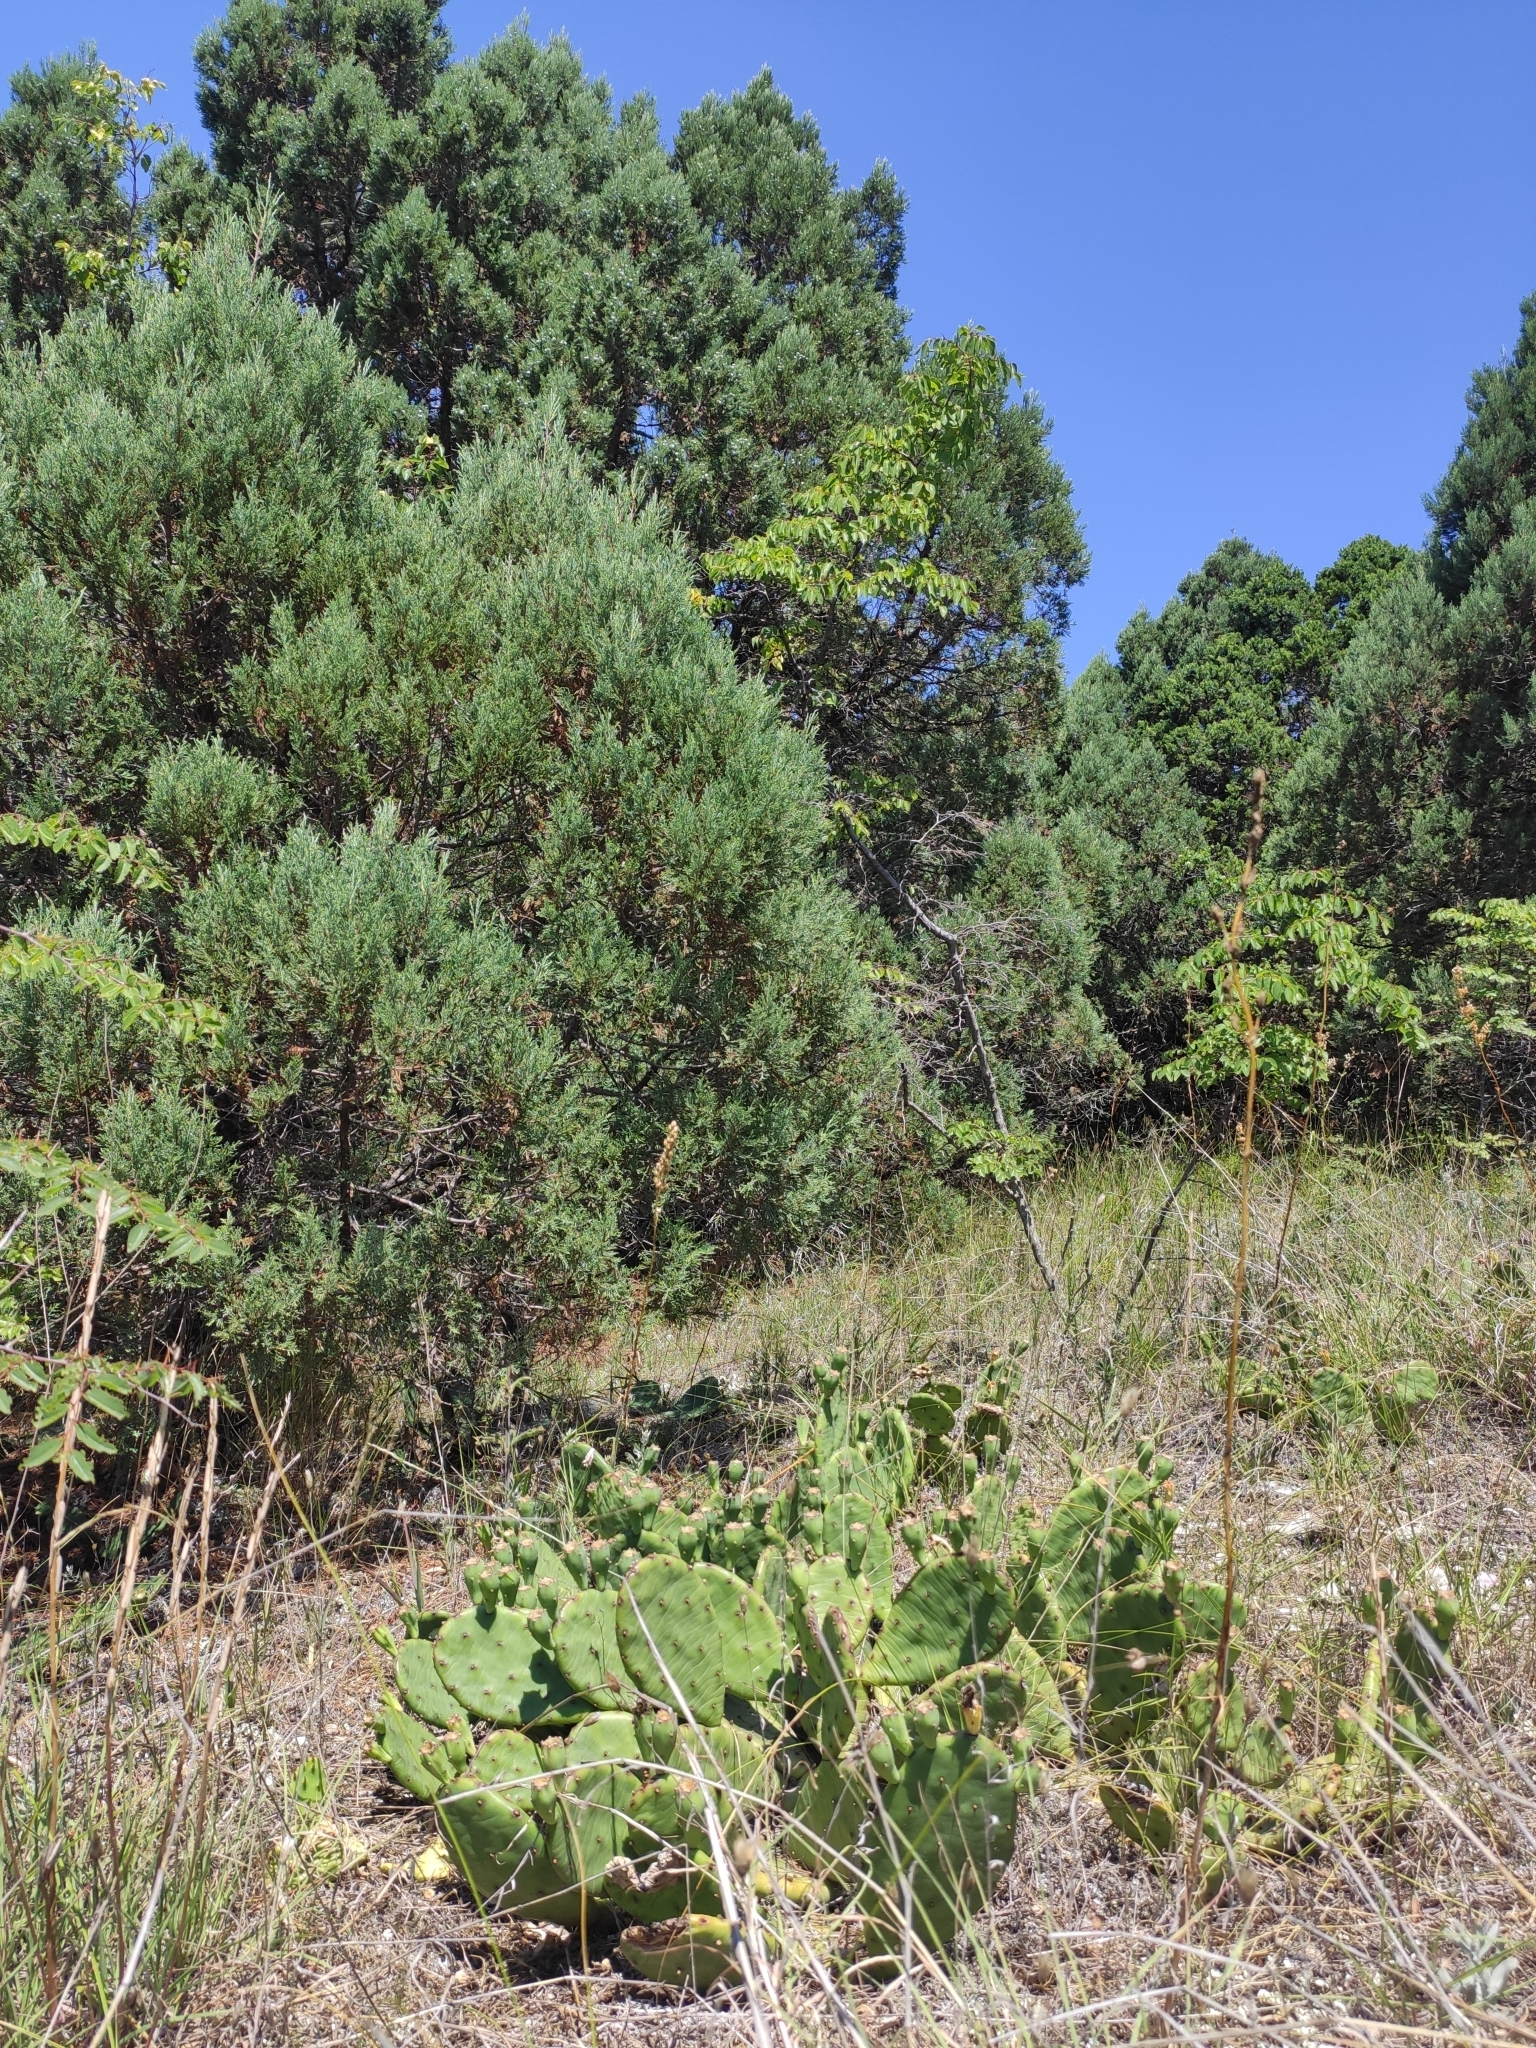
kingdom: Plantae
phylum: Tracheophyta
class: Magnoliopsida
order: Caryophyllales
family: Cactaceae
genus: Opuntia
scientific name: Opuntia humifusa
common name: Eastern prickly-pear
